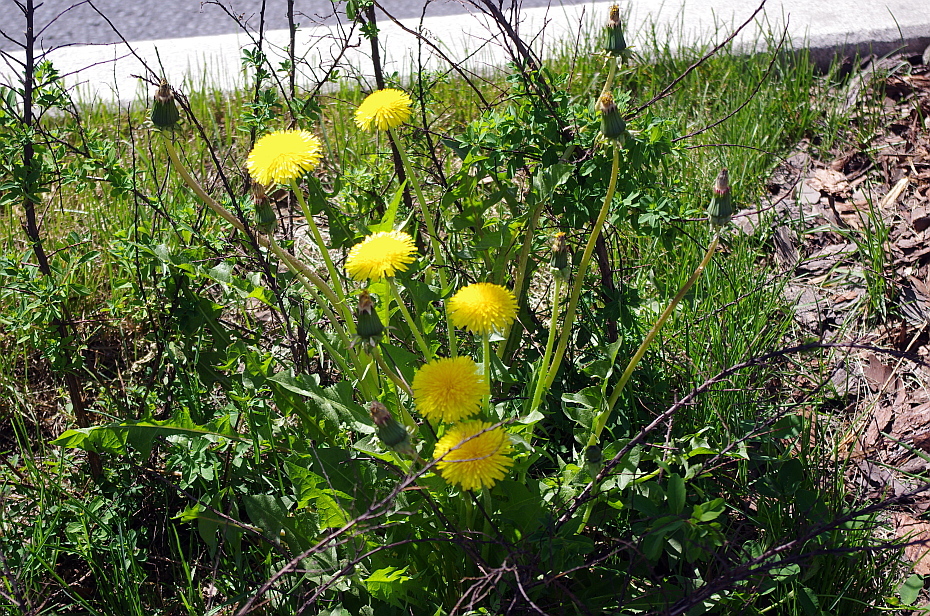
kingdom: Plantae
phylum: Tracheophyta
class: Magnoliopsida
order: Asterales
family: Asteraceae
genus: Taraxacum
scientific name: Taraxacum officinale
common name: Common dandelion
